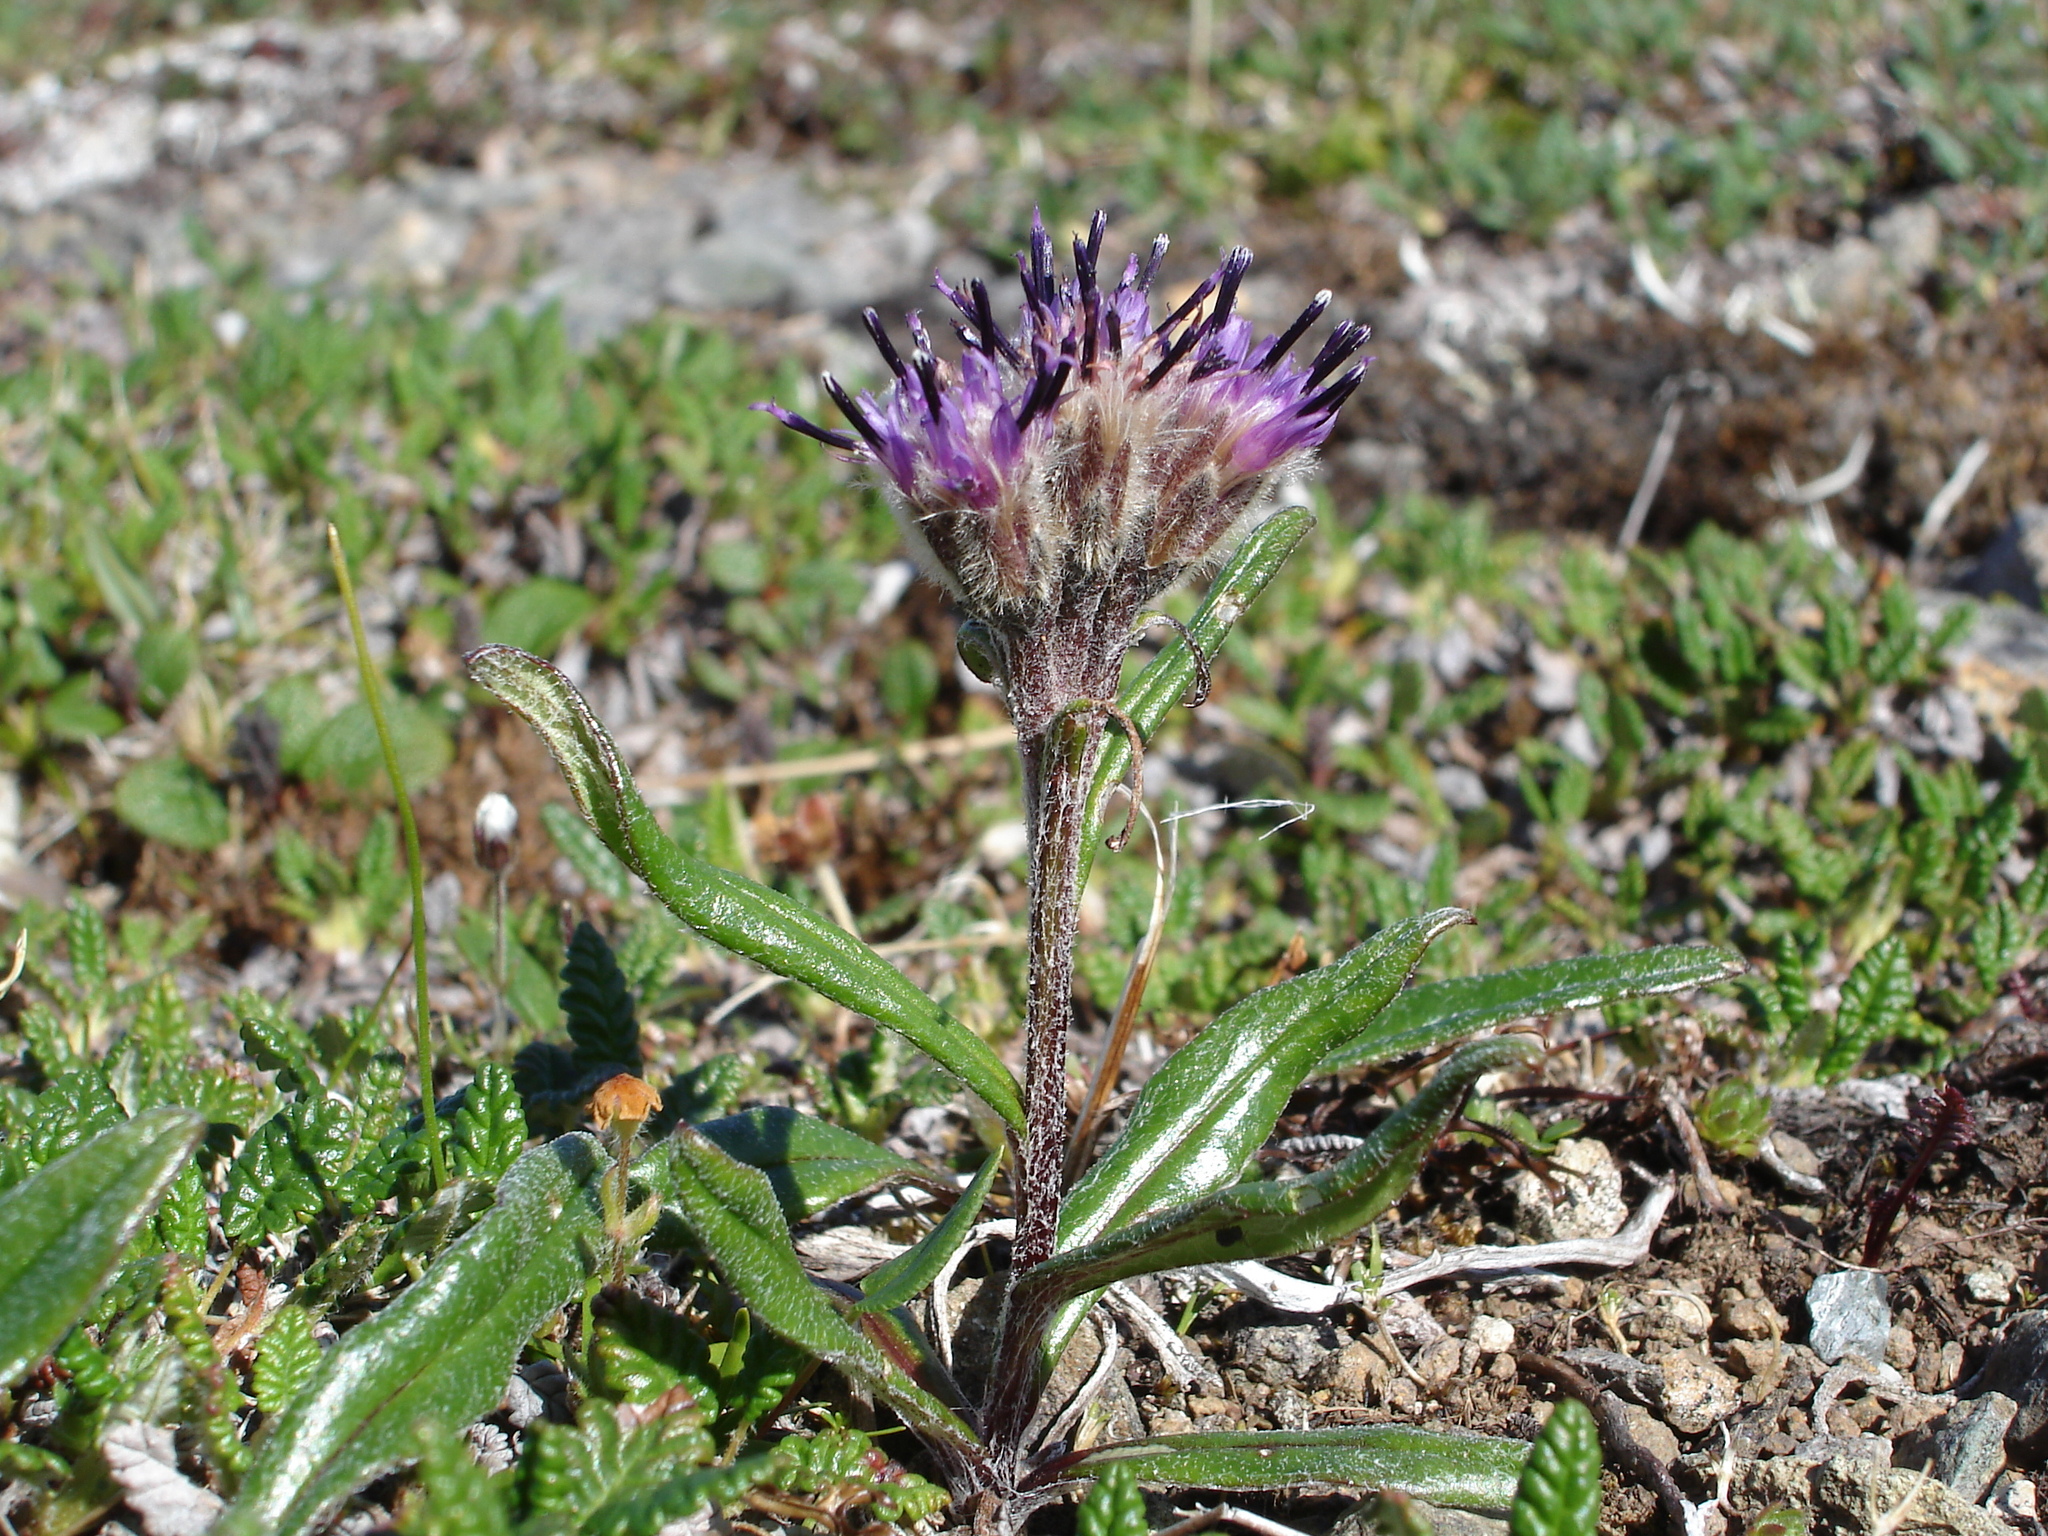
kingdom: Plantae
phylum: Tracheophyta
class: Magnoliopsida
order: Asterales
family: Asteraceae
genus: Saussurea
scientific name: Saussurea angustifolia
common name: Common saussurea
